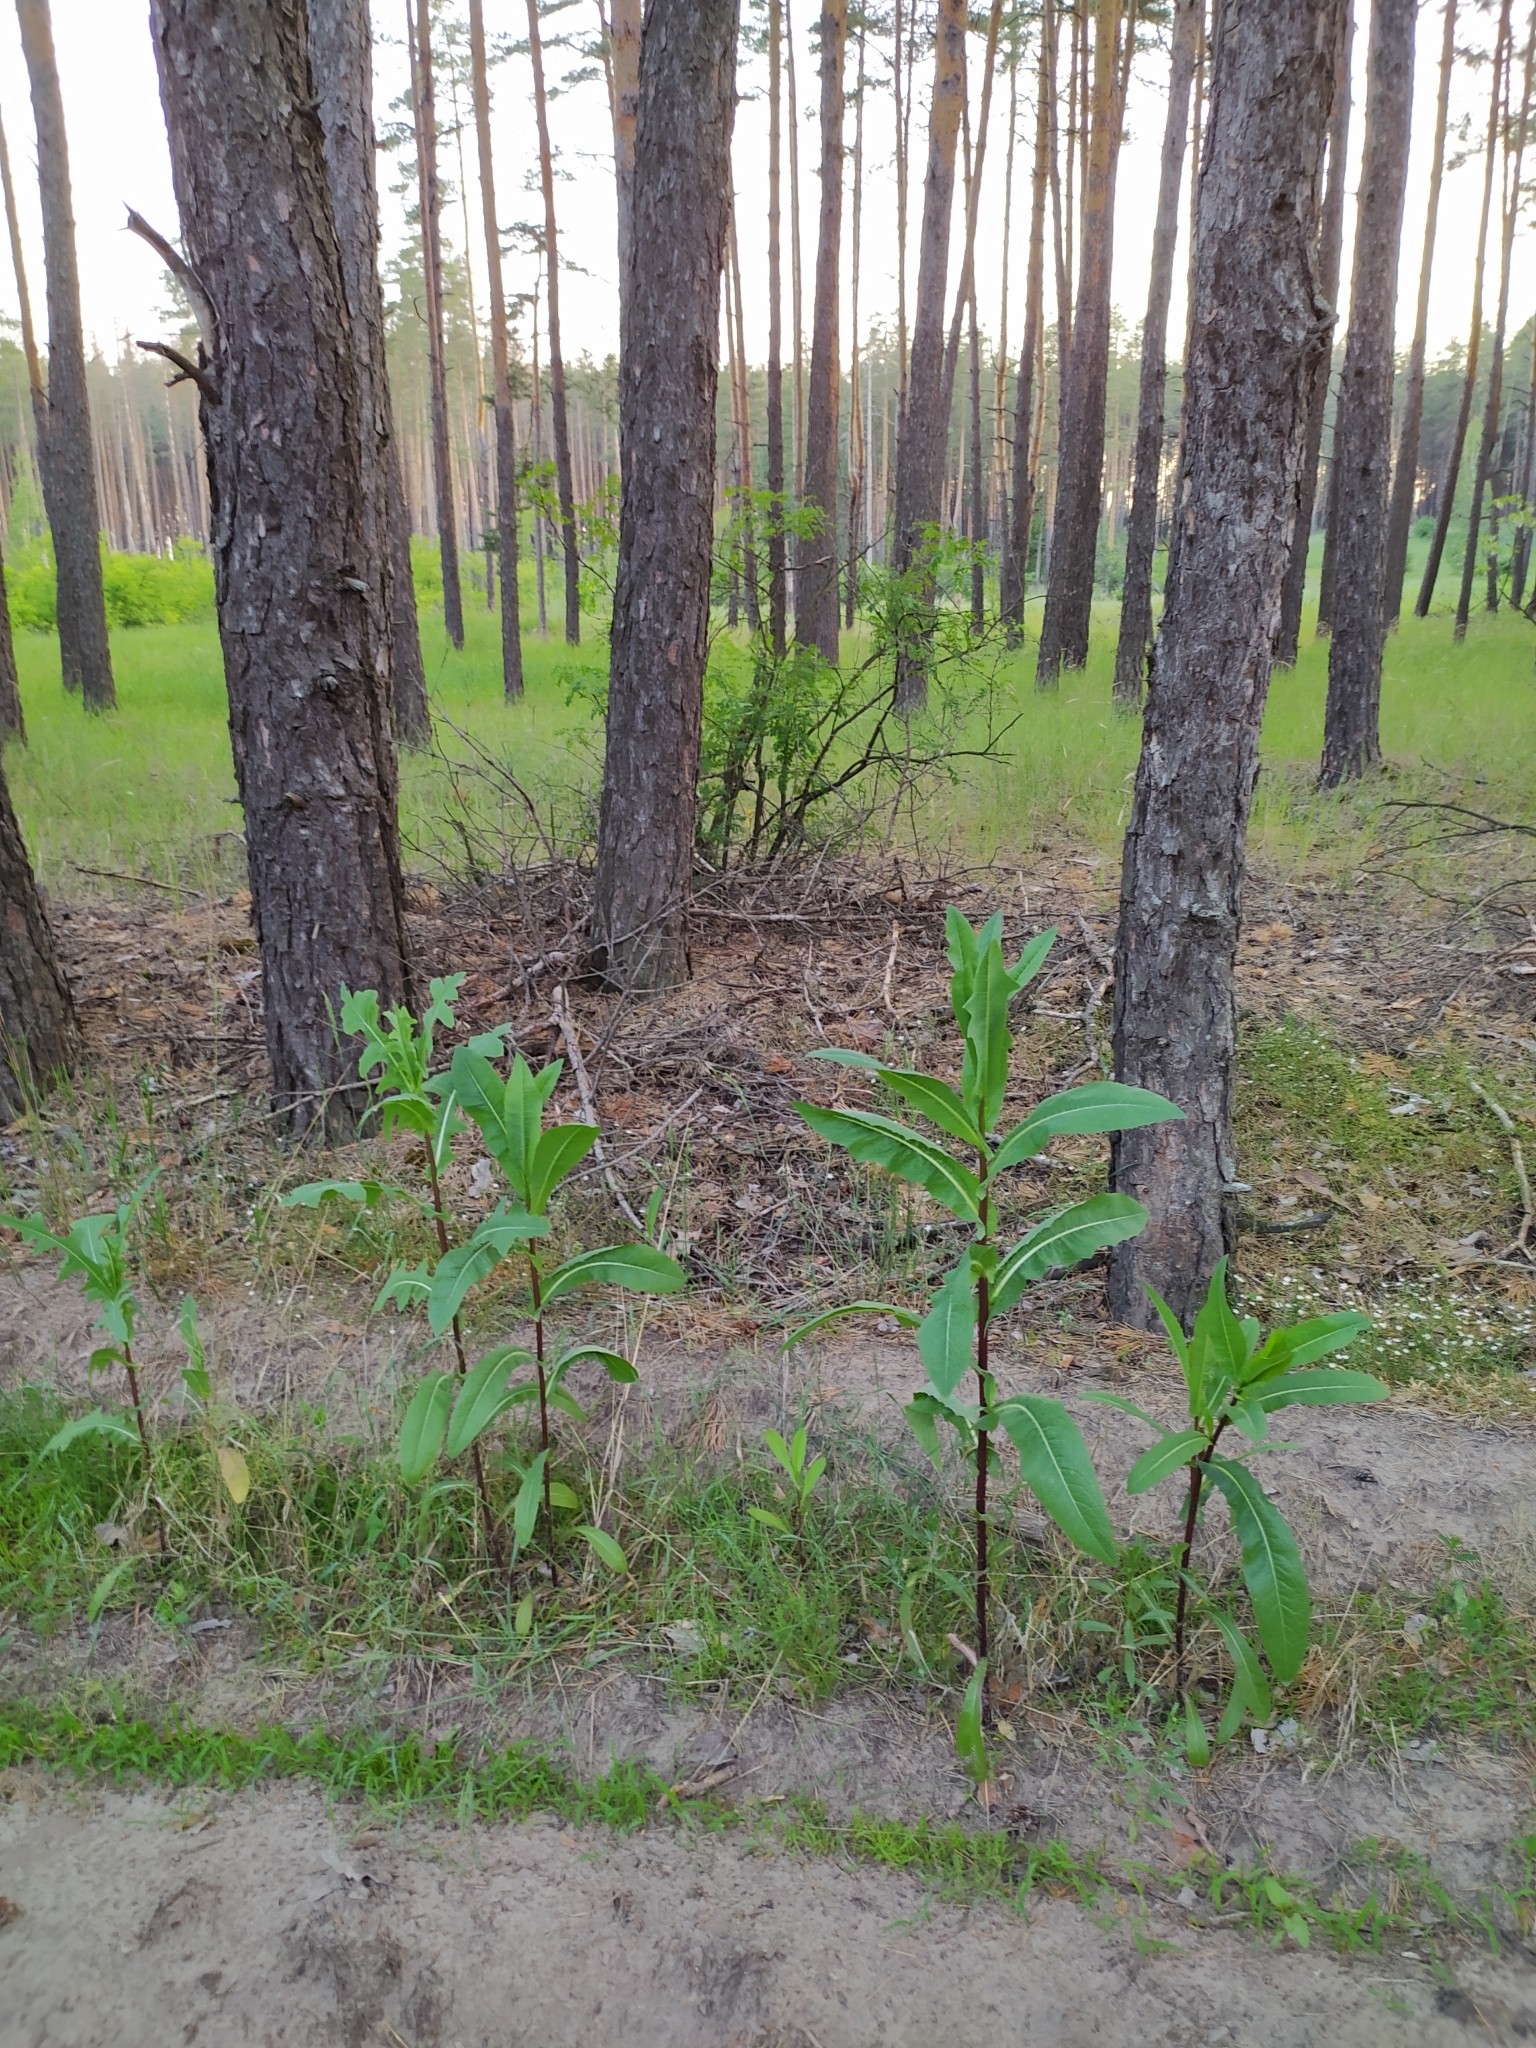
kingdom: Plantae
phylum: Tracheophyta
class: Magnoliopsida
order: Asterales
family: Asteraceae
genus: Lactuca
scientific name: Lactuca serriola
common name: Prickly lettuce
